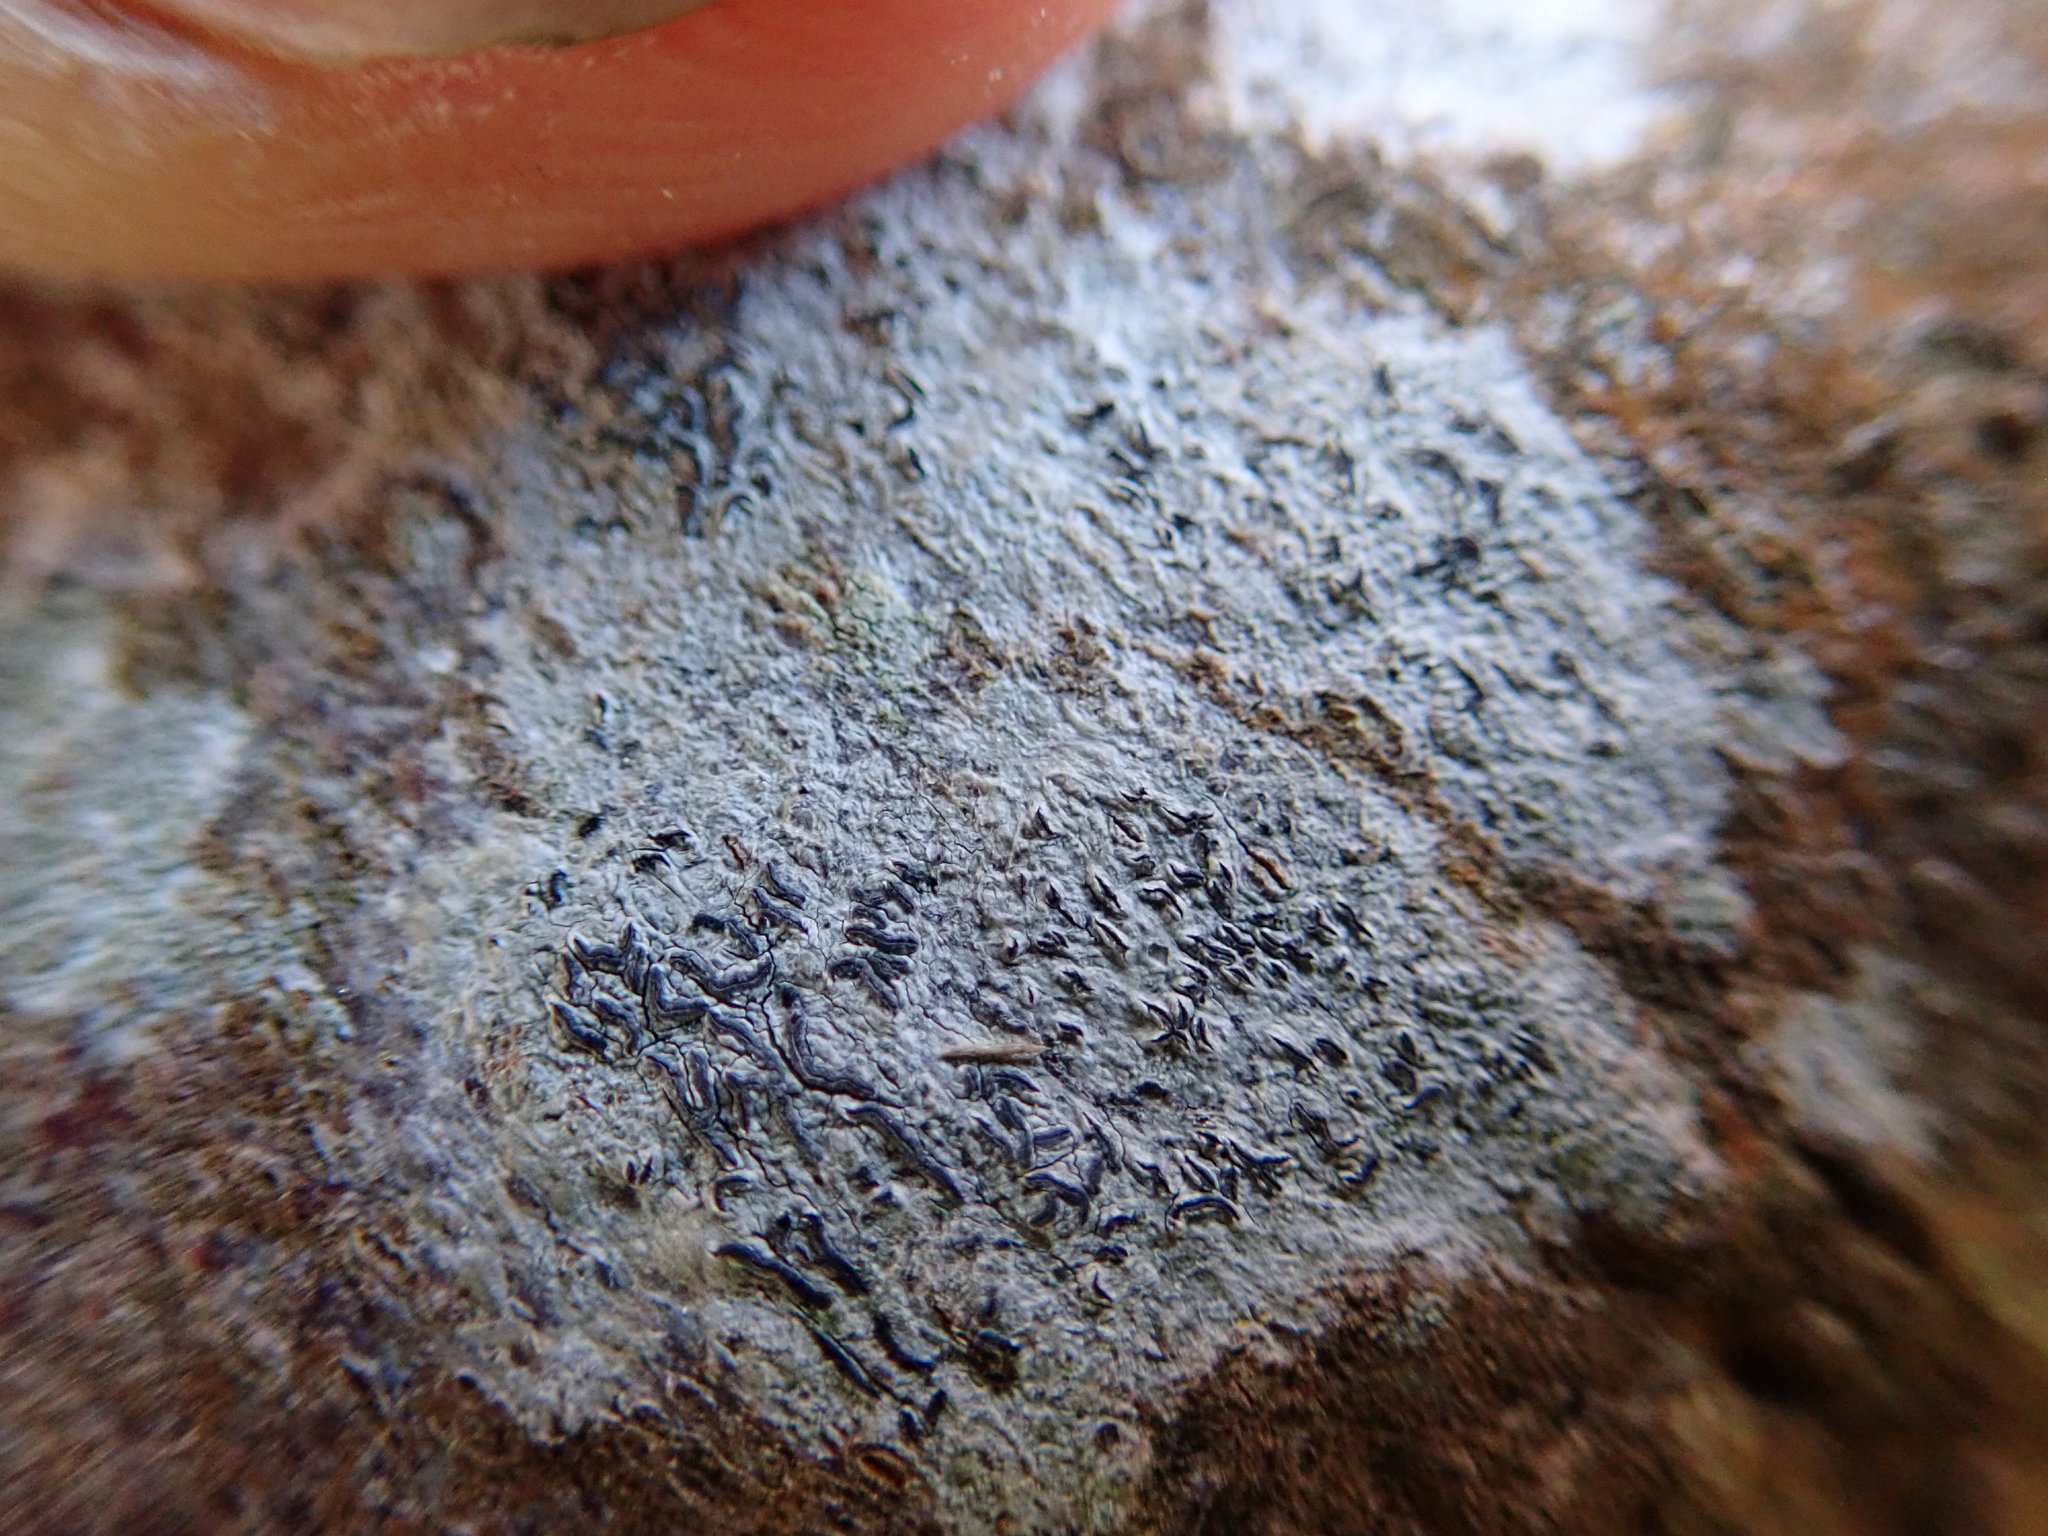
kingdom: Plantae
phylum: Tracheophyta
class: Magnoliopsida
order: Caryophyllales
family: Aizoaceae
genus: Tetragonia
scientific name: Tetragonia implexicoma
